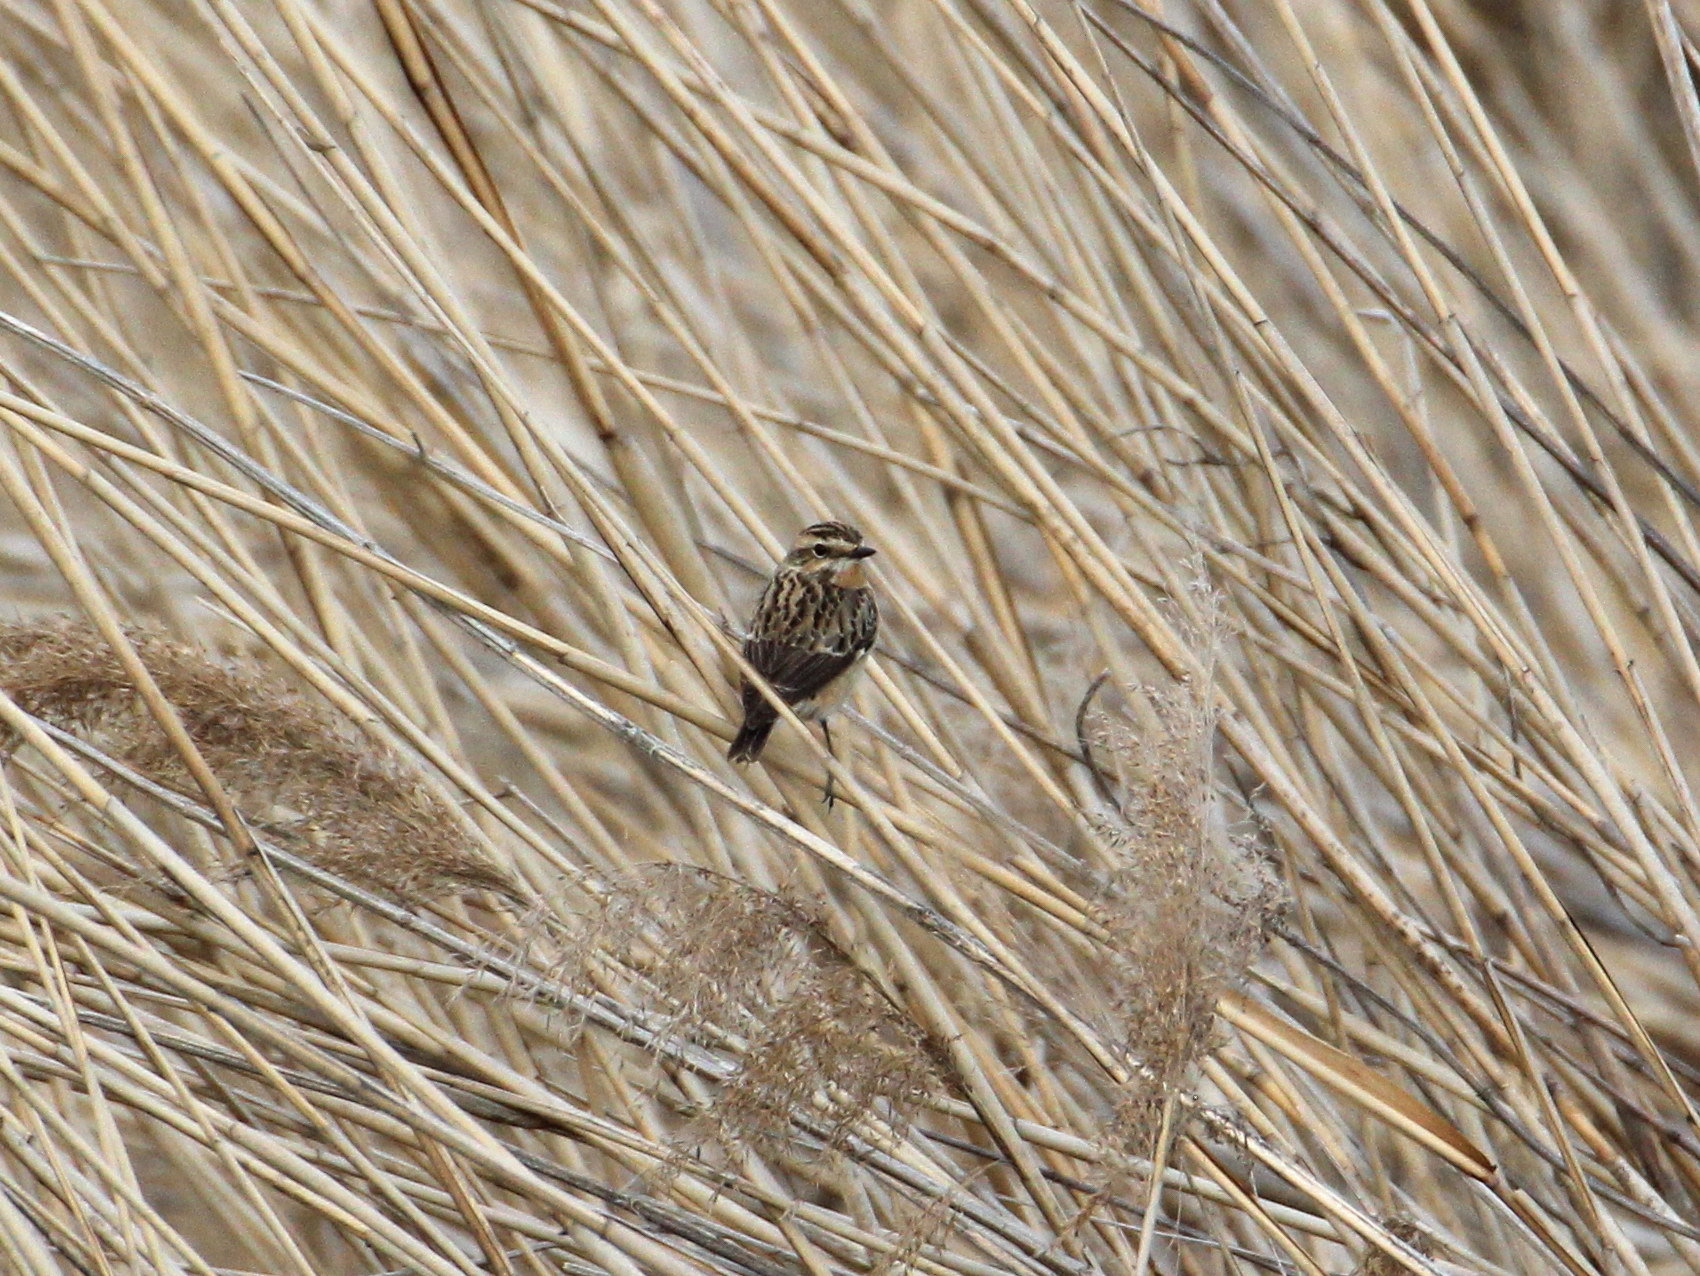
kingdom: Animalia
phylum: Chordata
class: Aves
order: Passeriformes
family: Muscicapidae
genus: Saxicola
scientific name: Saxicola rubetra
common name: Whinchat
